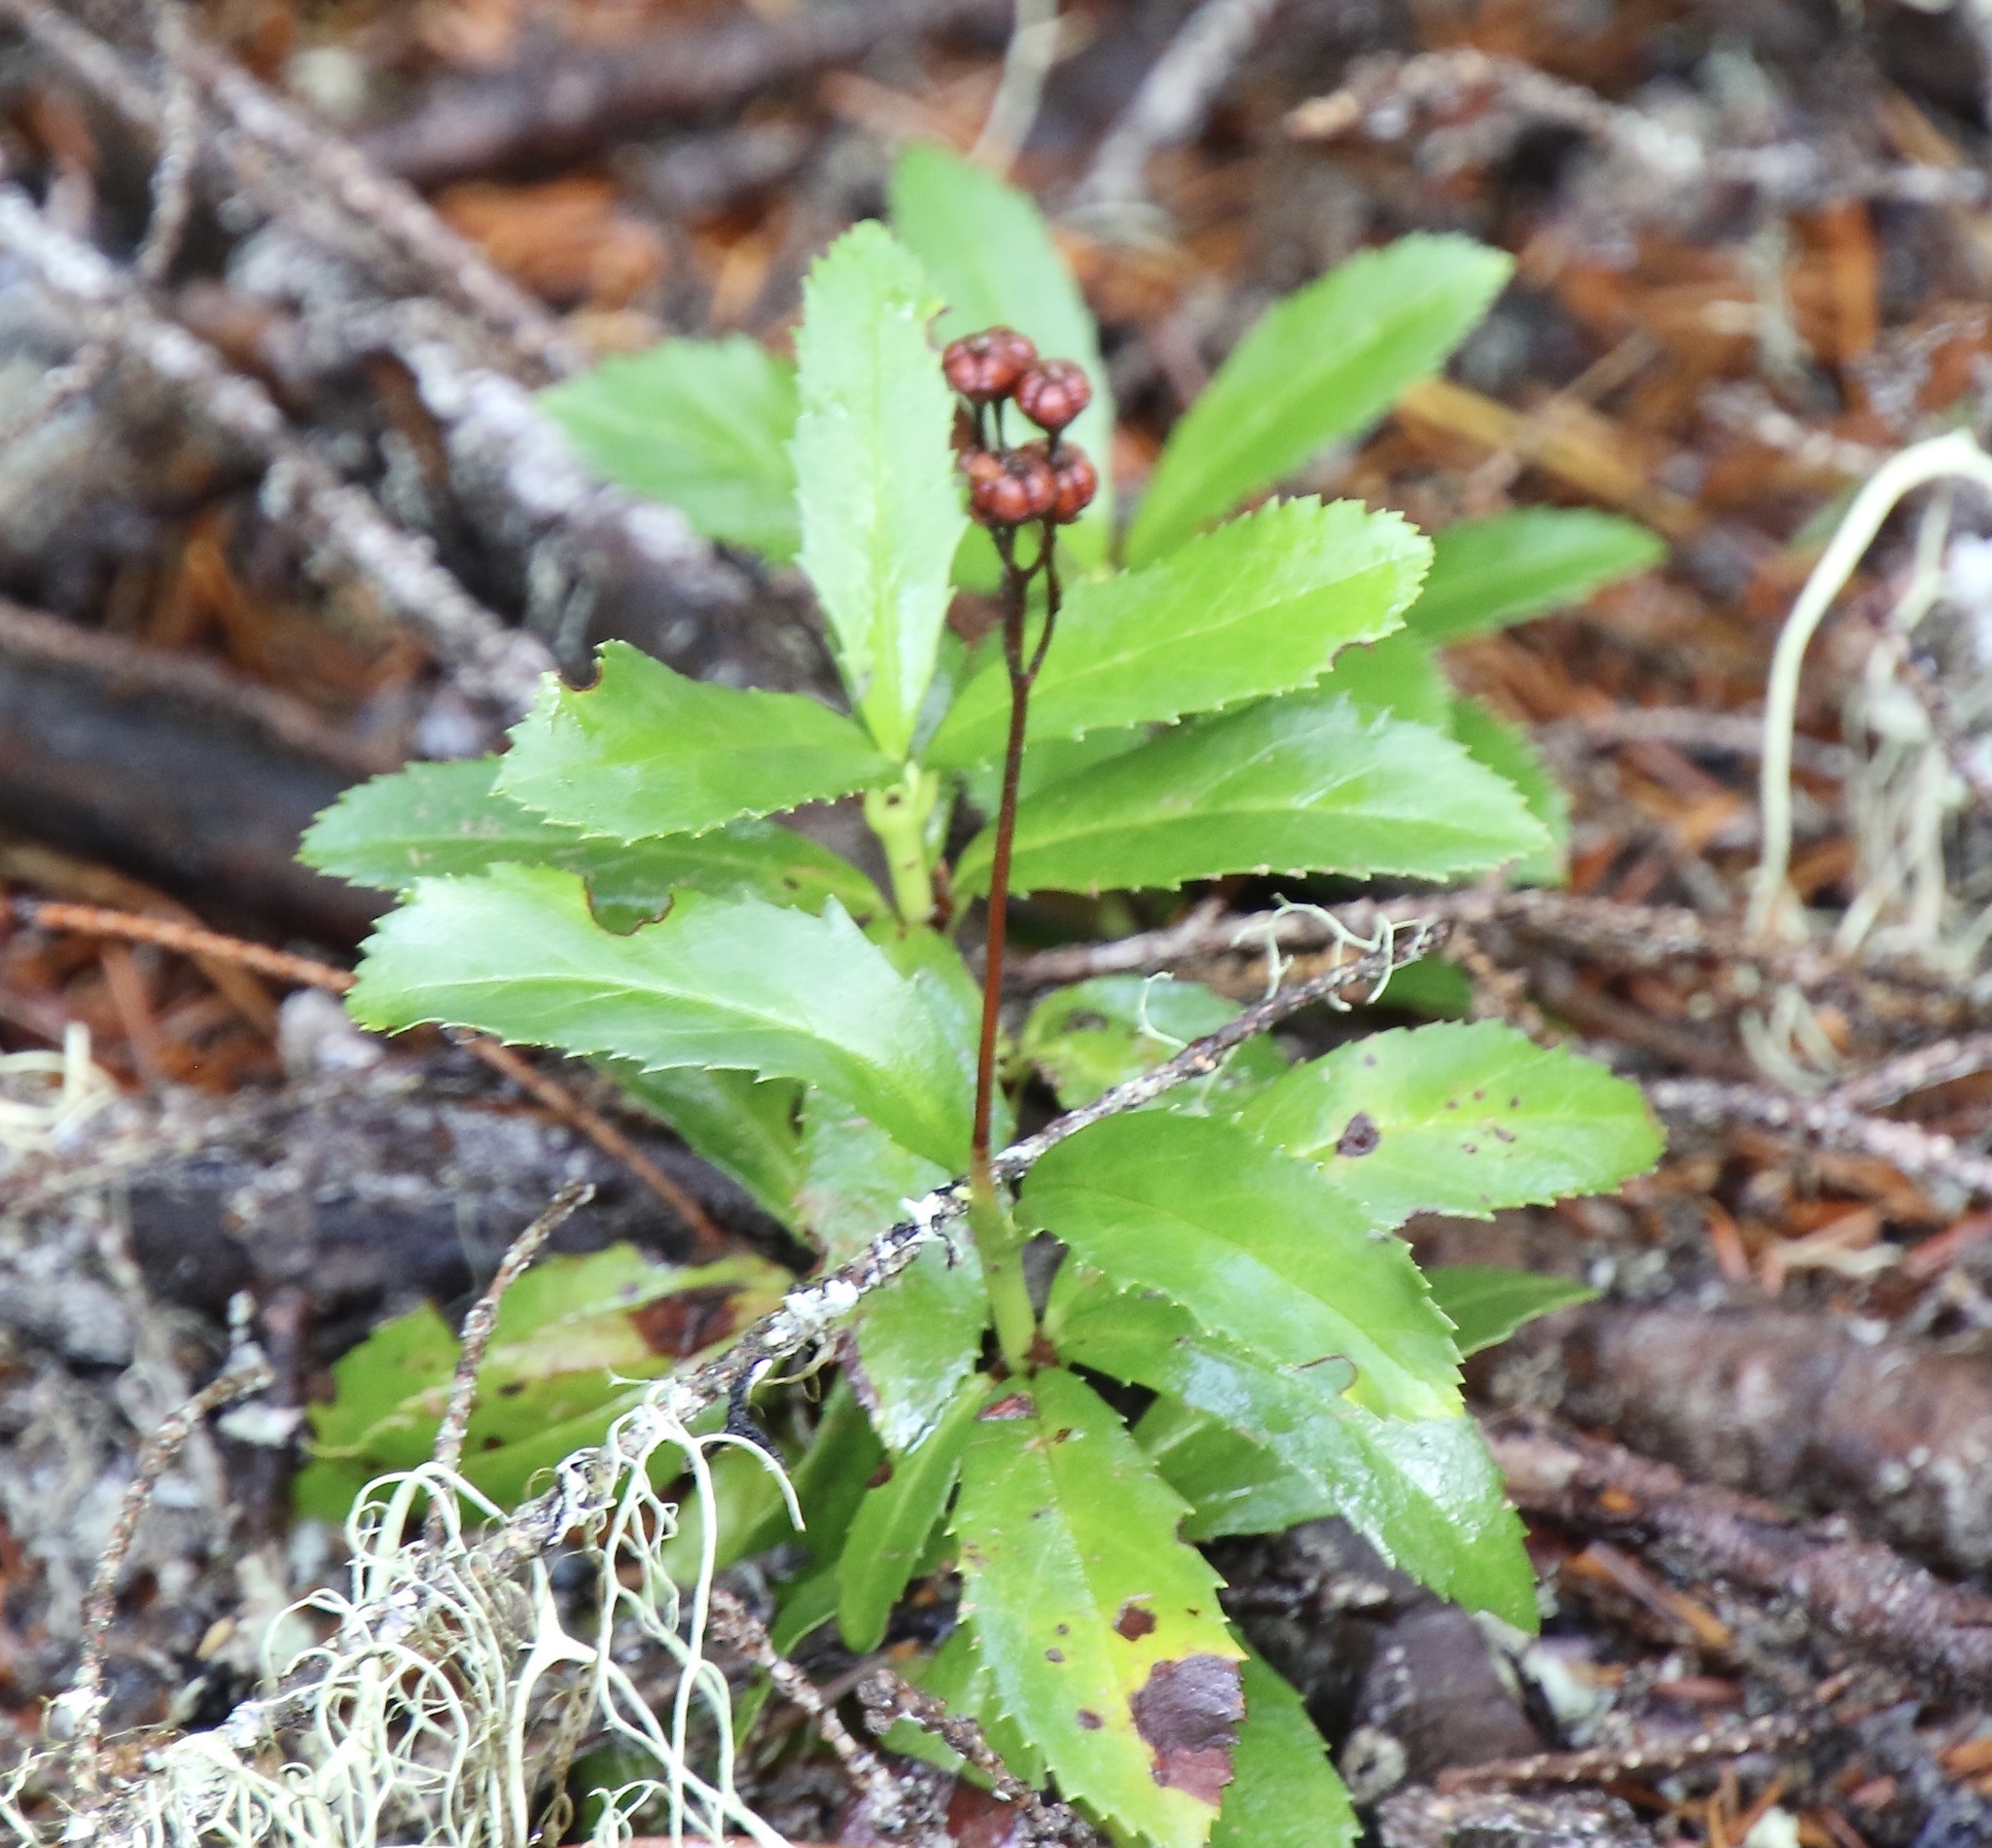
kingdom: Plantae
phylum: Tracheophyta
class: Magnoliopsida
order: Ericales
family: Ericaceae
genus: Chimaphila
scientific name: Chimaphila umbellata
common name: Pipsissewa
